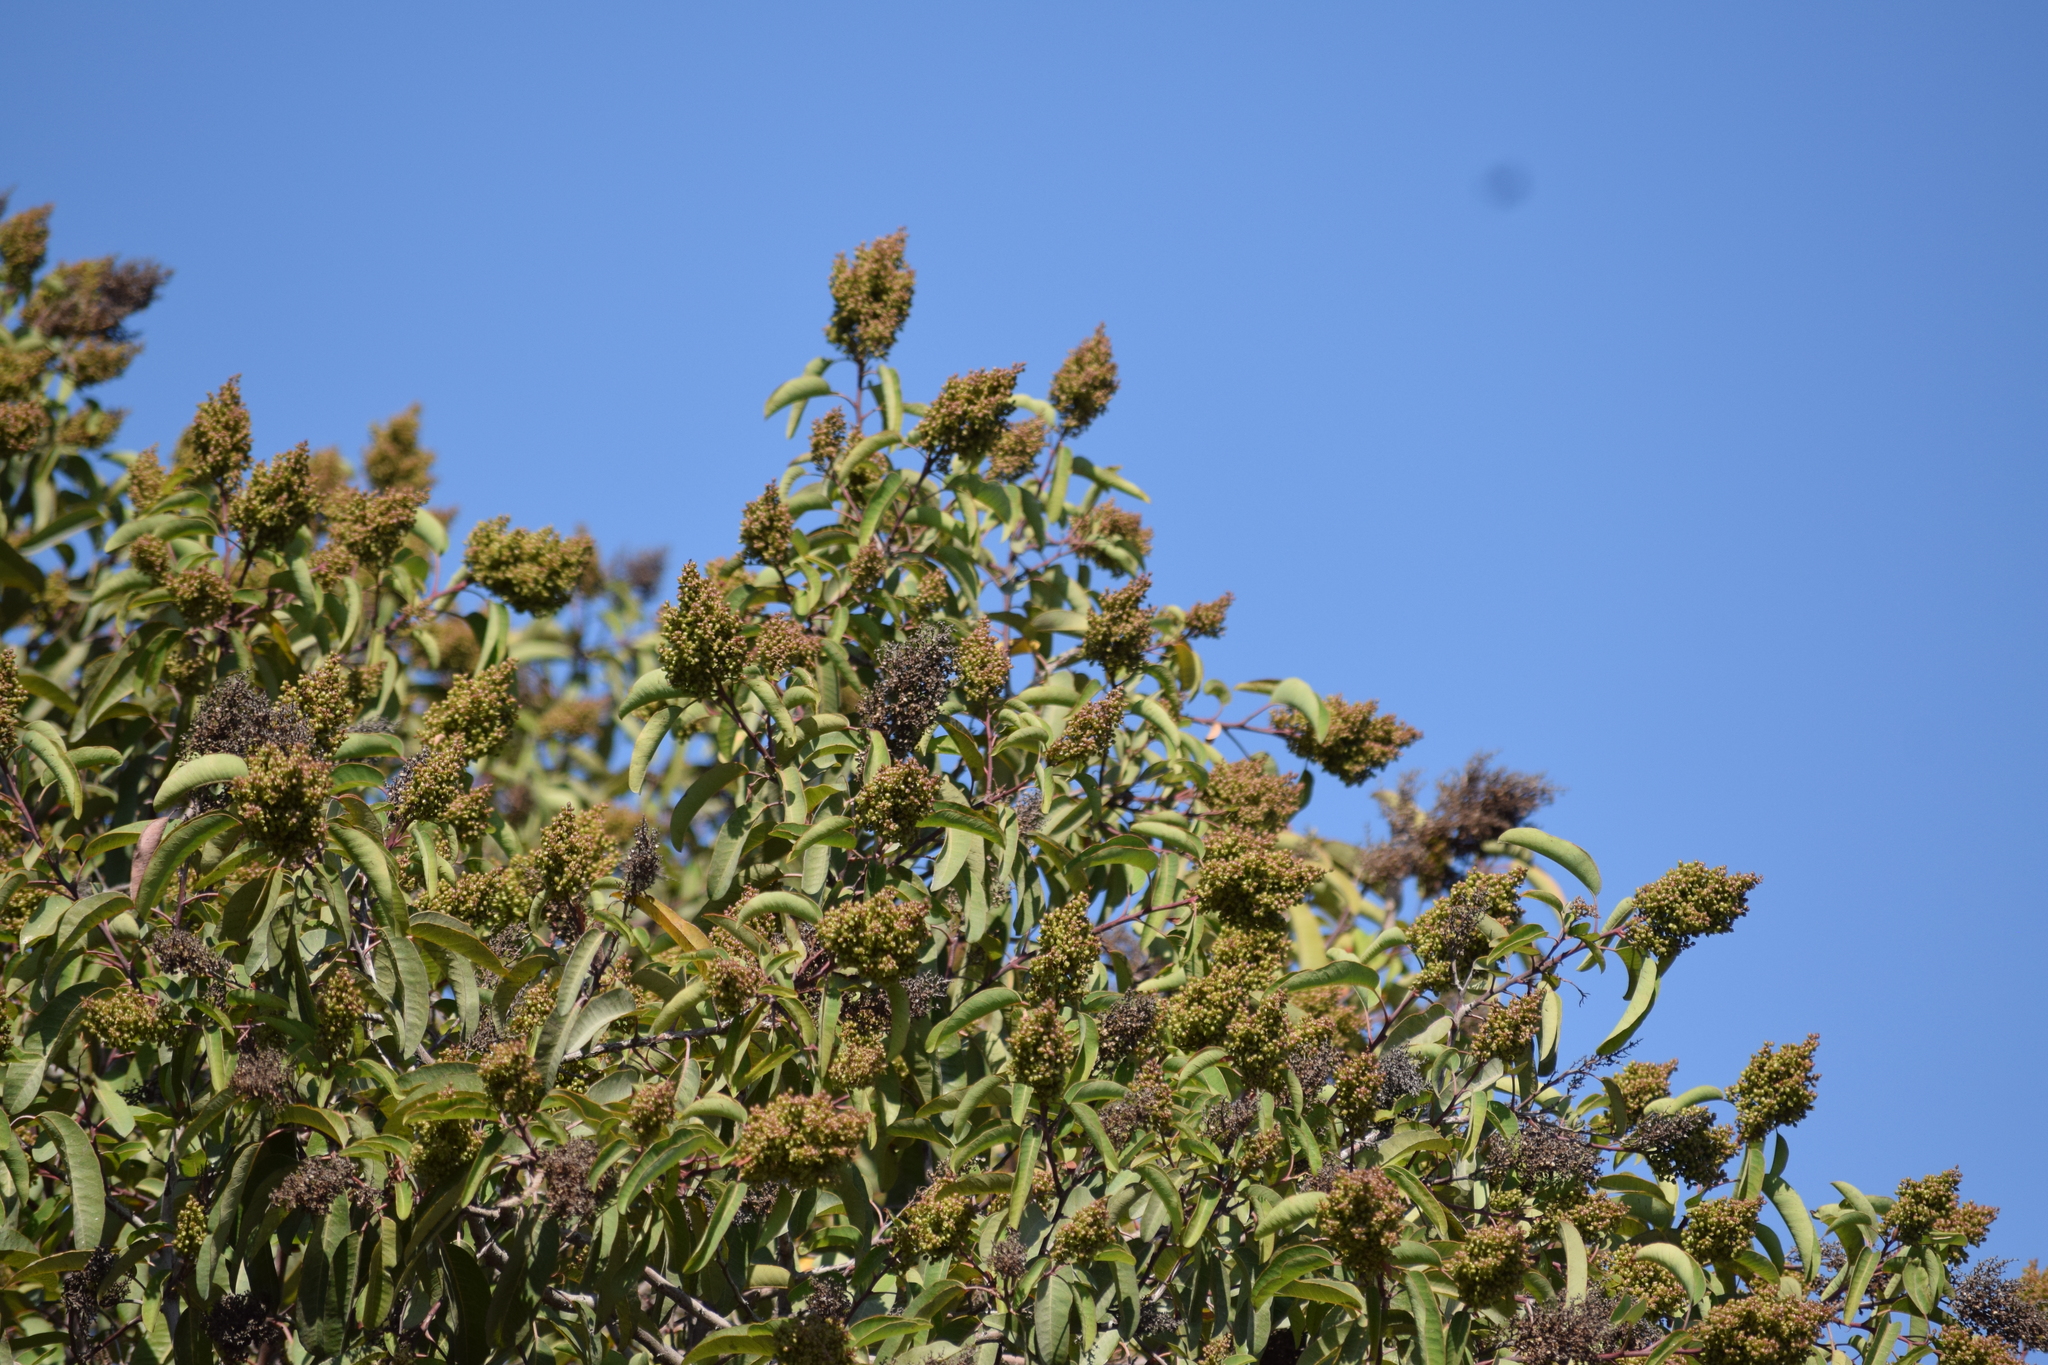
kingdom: Plantae
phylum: Tracheophyta
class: Magnoliopsida
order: Sapindales
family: Anacardiaceae
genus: Malosma
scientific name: Malosma laurina
